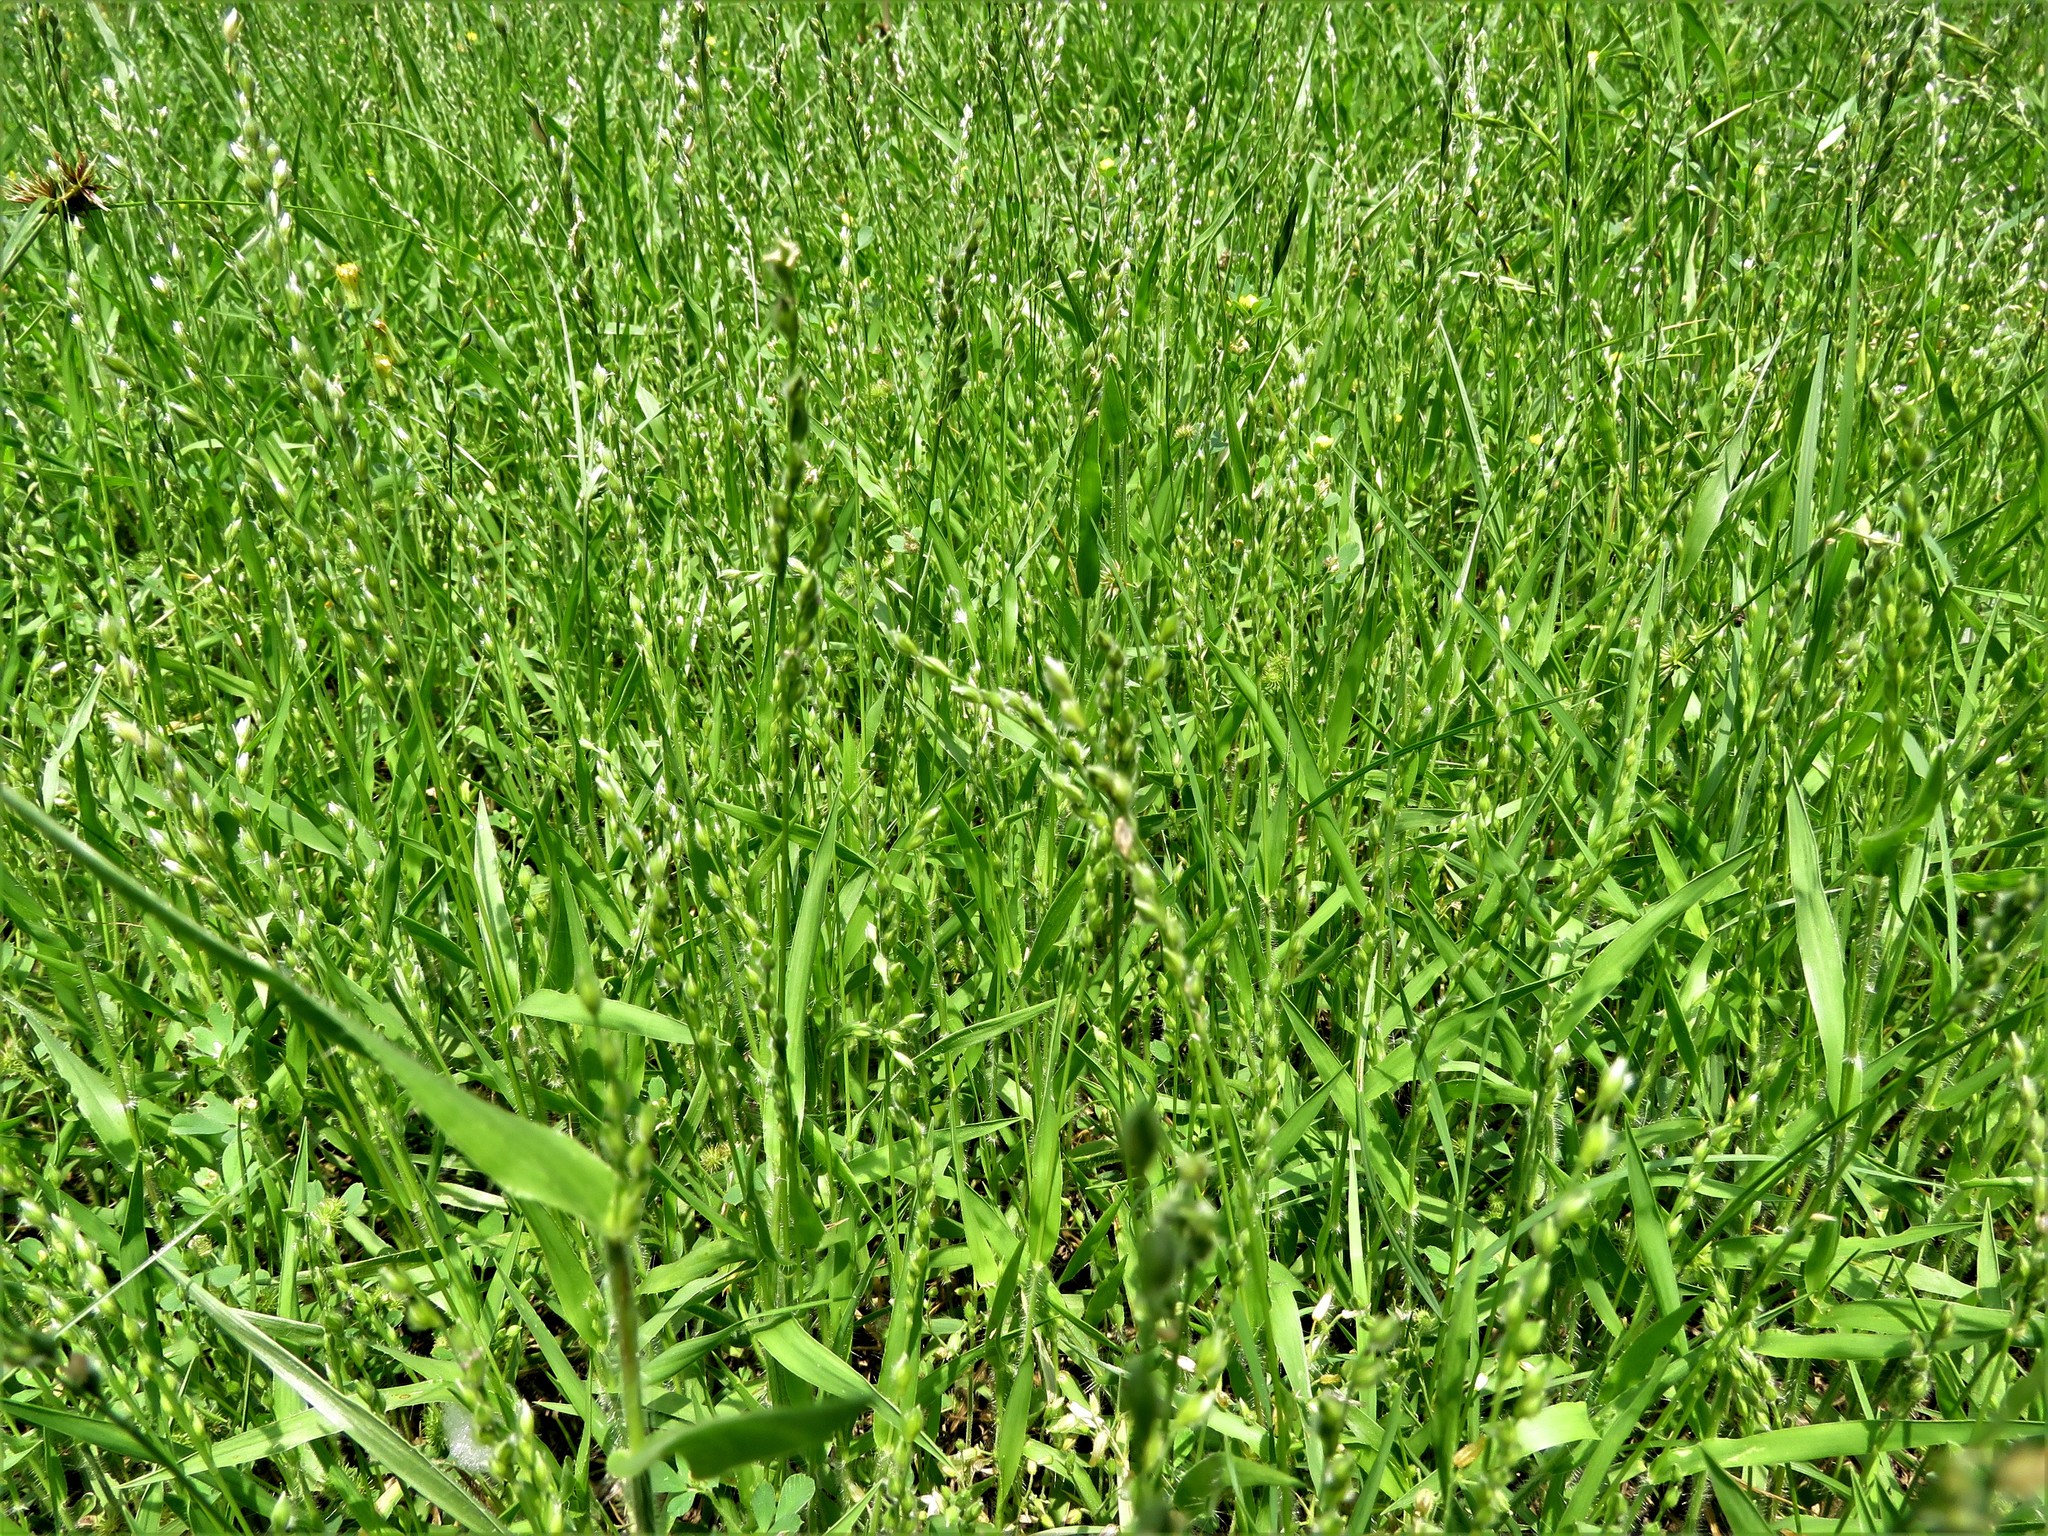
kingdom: Plantae
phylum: Tracheophyta
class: Liliopsida
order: Poales
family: Poaceae
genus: Urochloa
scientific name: Urochloa ciliatissima
